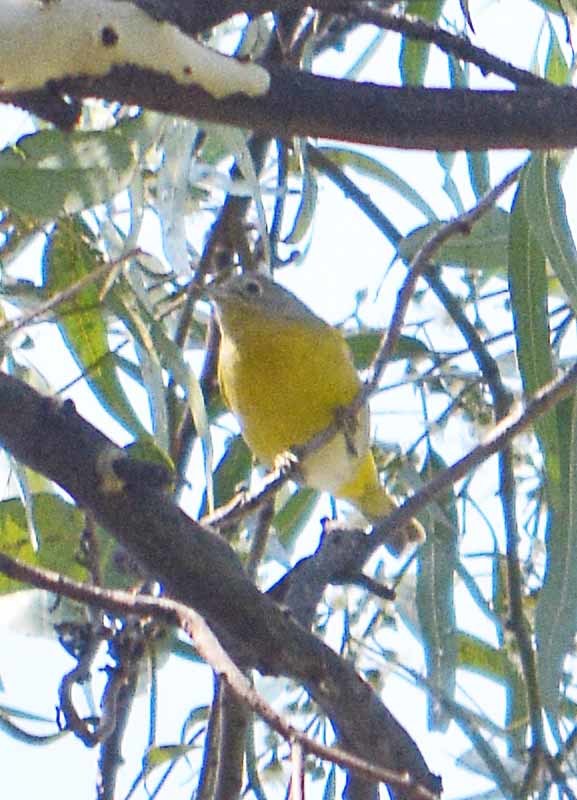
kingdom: Animalia
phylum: Chordata
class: Aves
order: Passeriformes
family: Parulidae
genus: Leiothlypis
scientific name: Leiothlypis ruficapilla
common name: Nashville warbler
